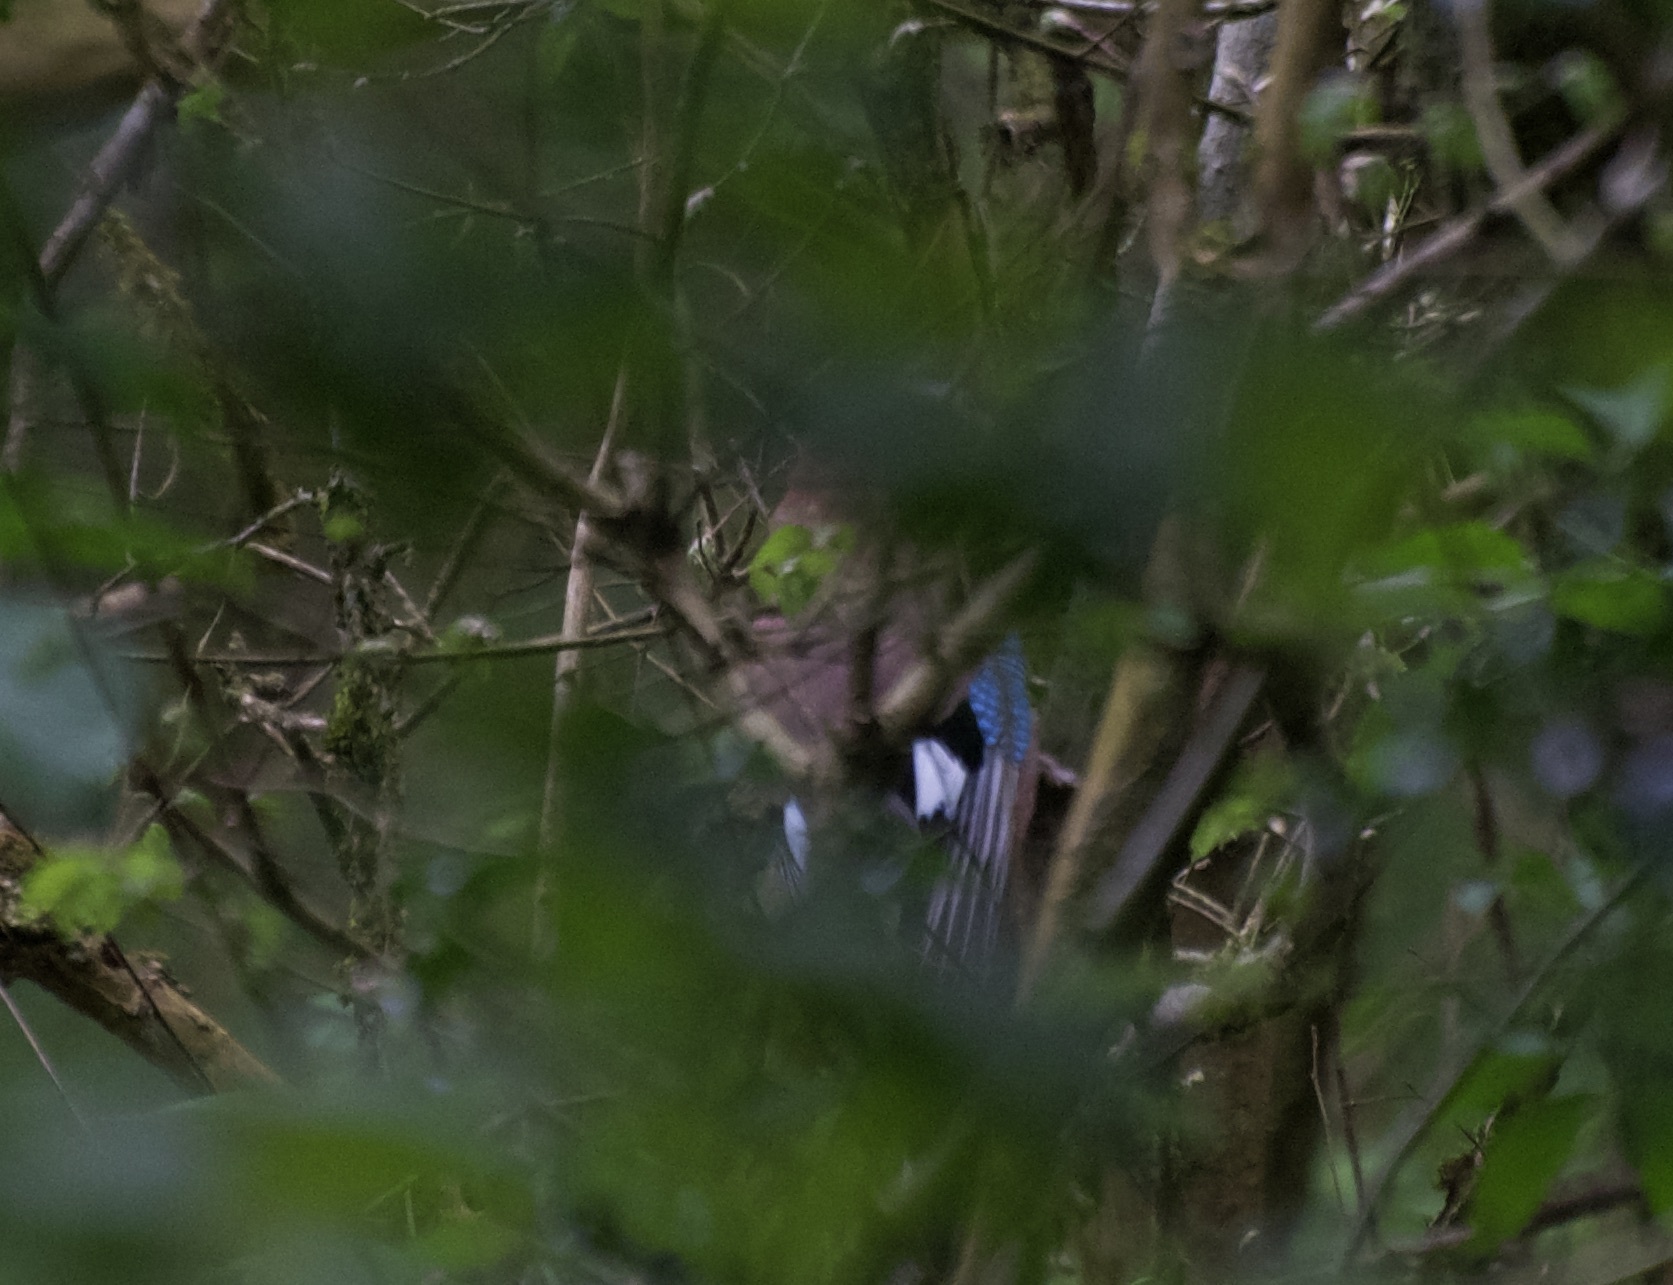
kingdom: Animalia
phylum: Chordata
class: Aves
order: Passeriformes
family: Corvidae
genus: Garrulus
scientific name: Garrulus glandarius
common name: Eurasian jay
